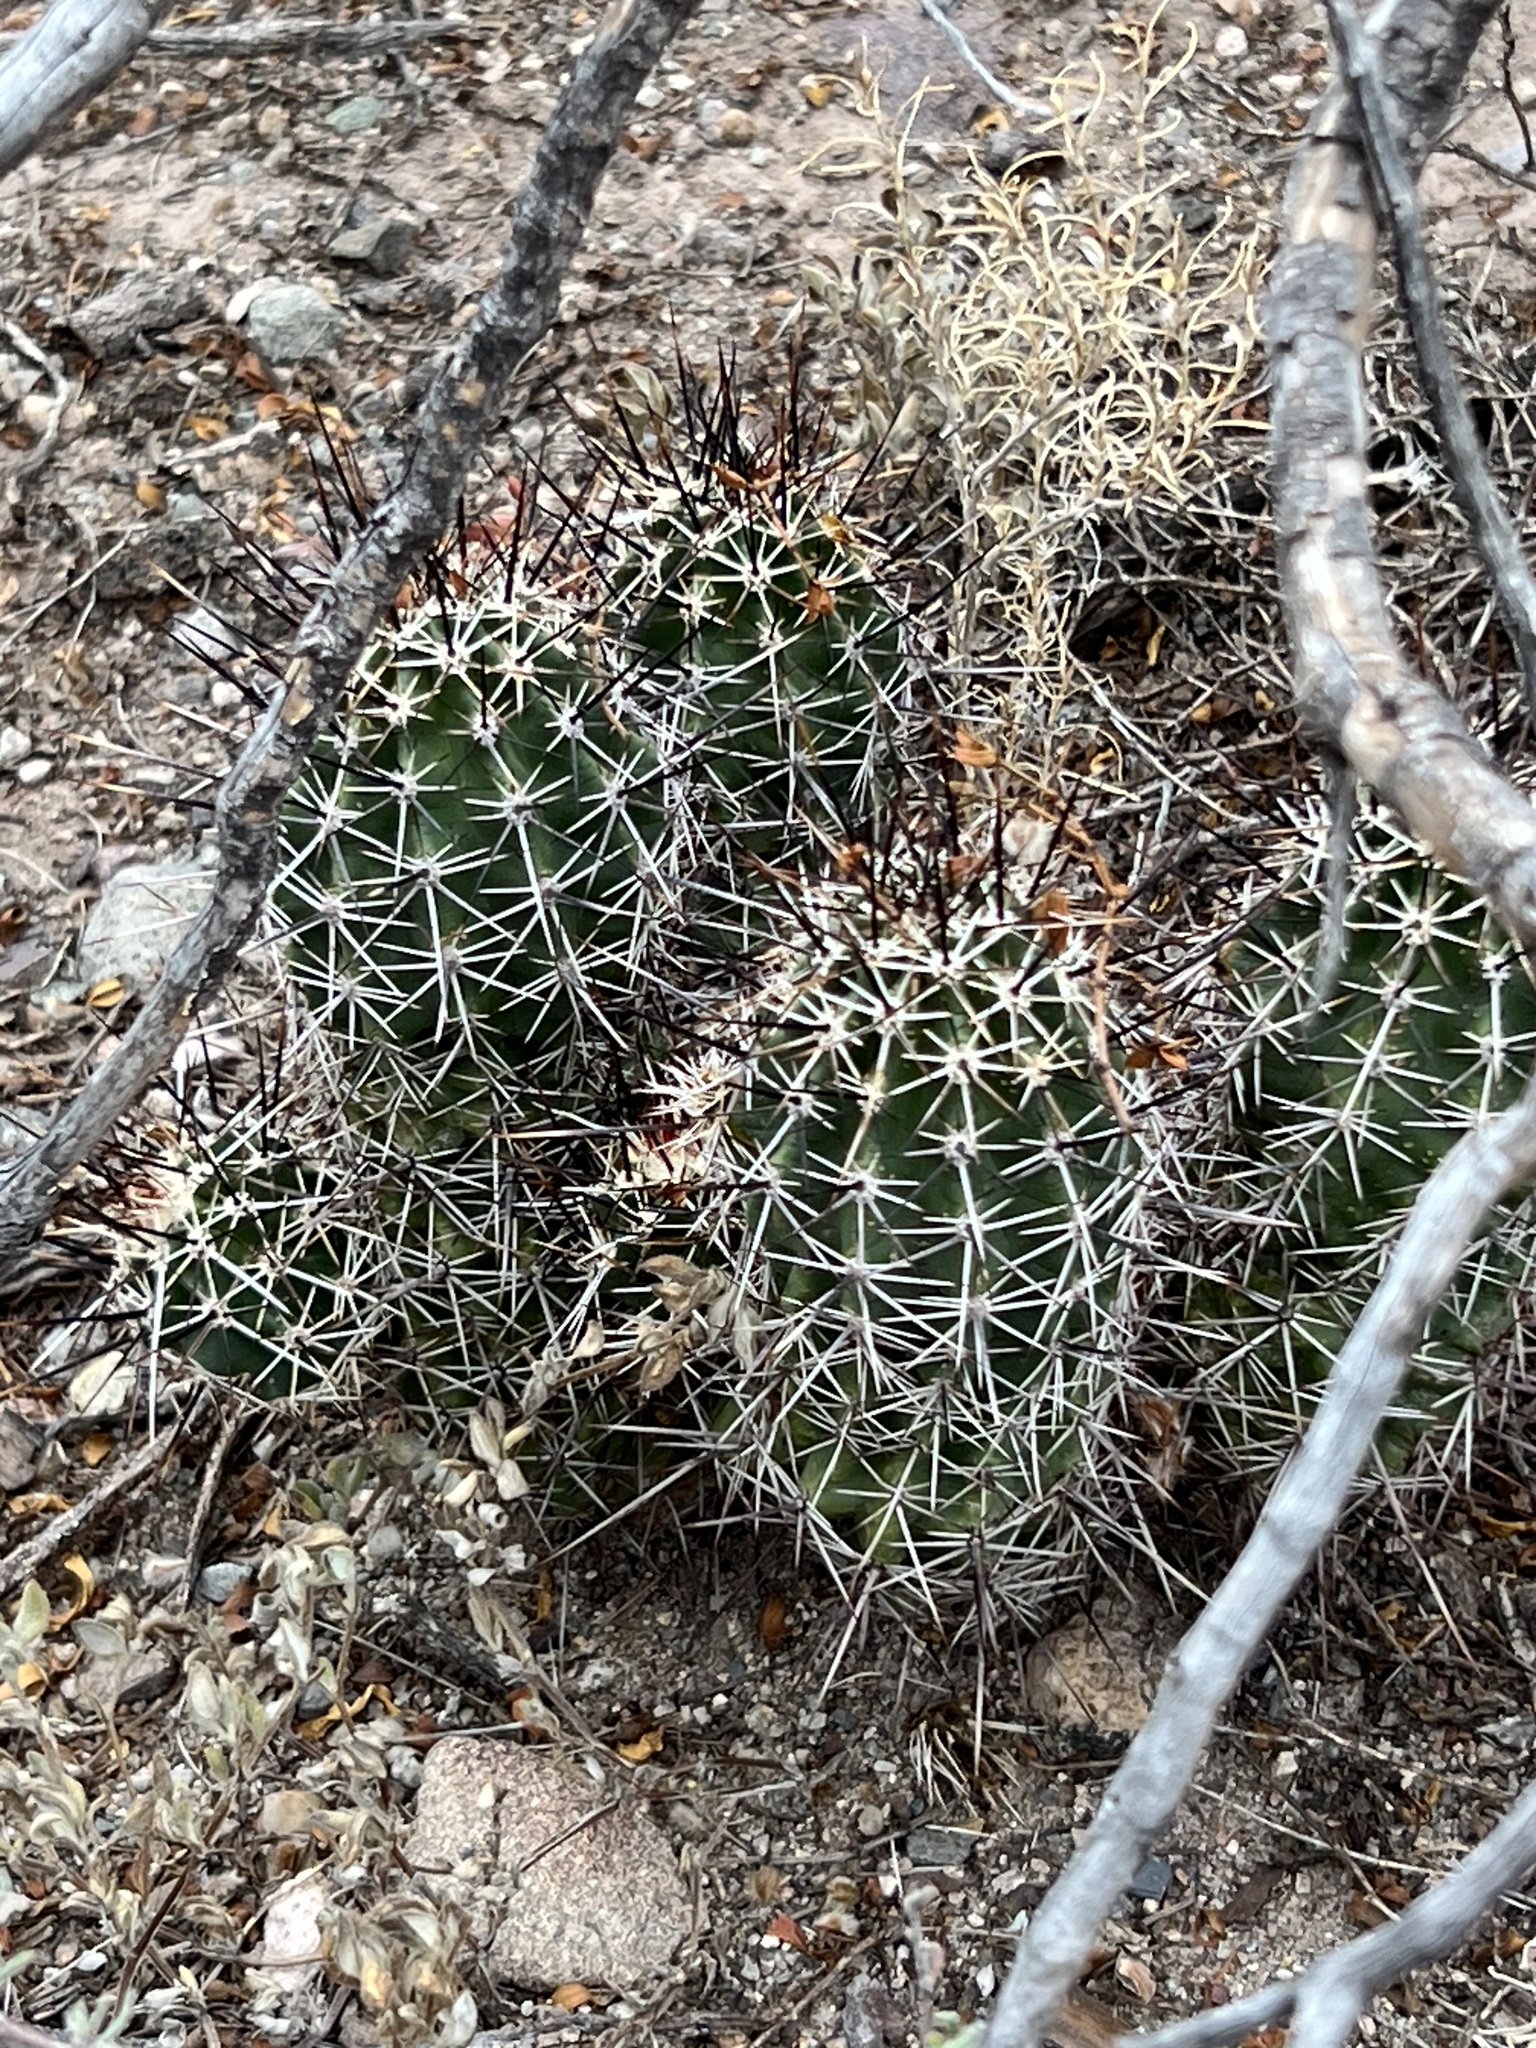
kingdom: Plantae
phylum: Tracheophyta
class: Magnoliopsida
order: Caryophyllales
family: Cactaceae
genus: Echinocereus
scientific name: Echinocereus fasciculatus
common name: Bundle hedgehog
